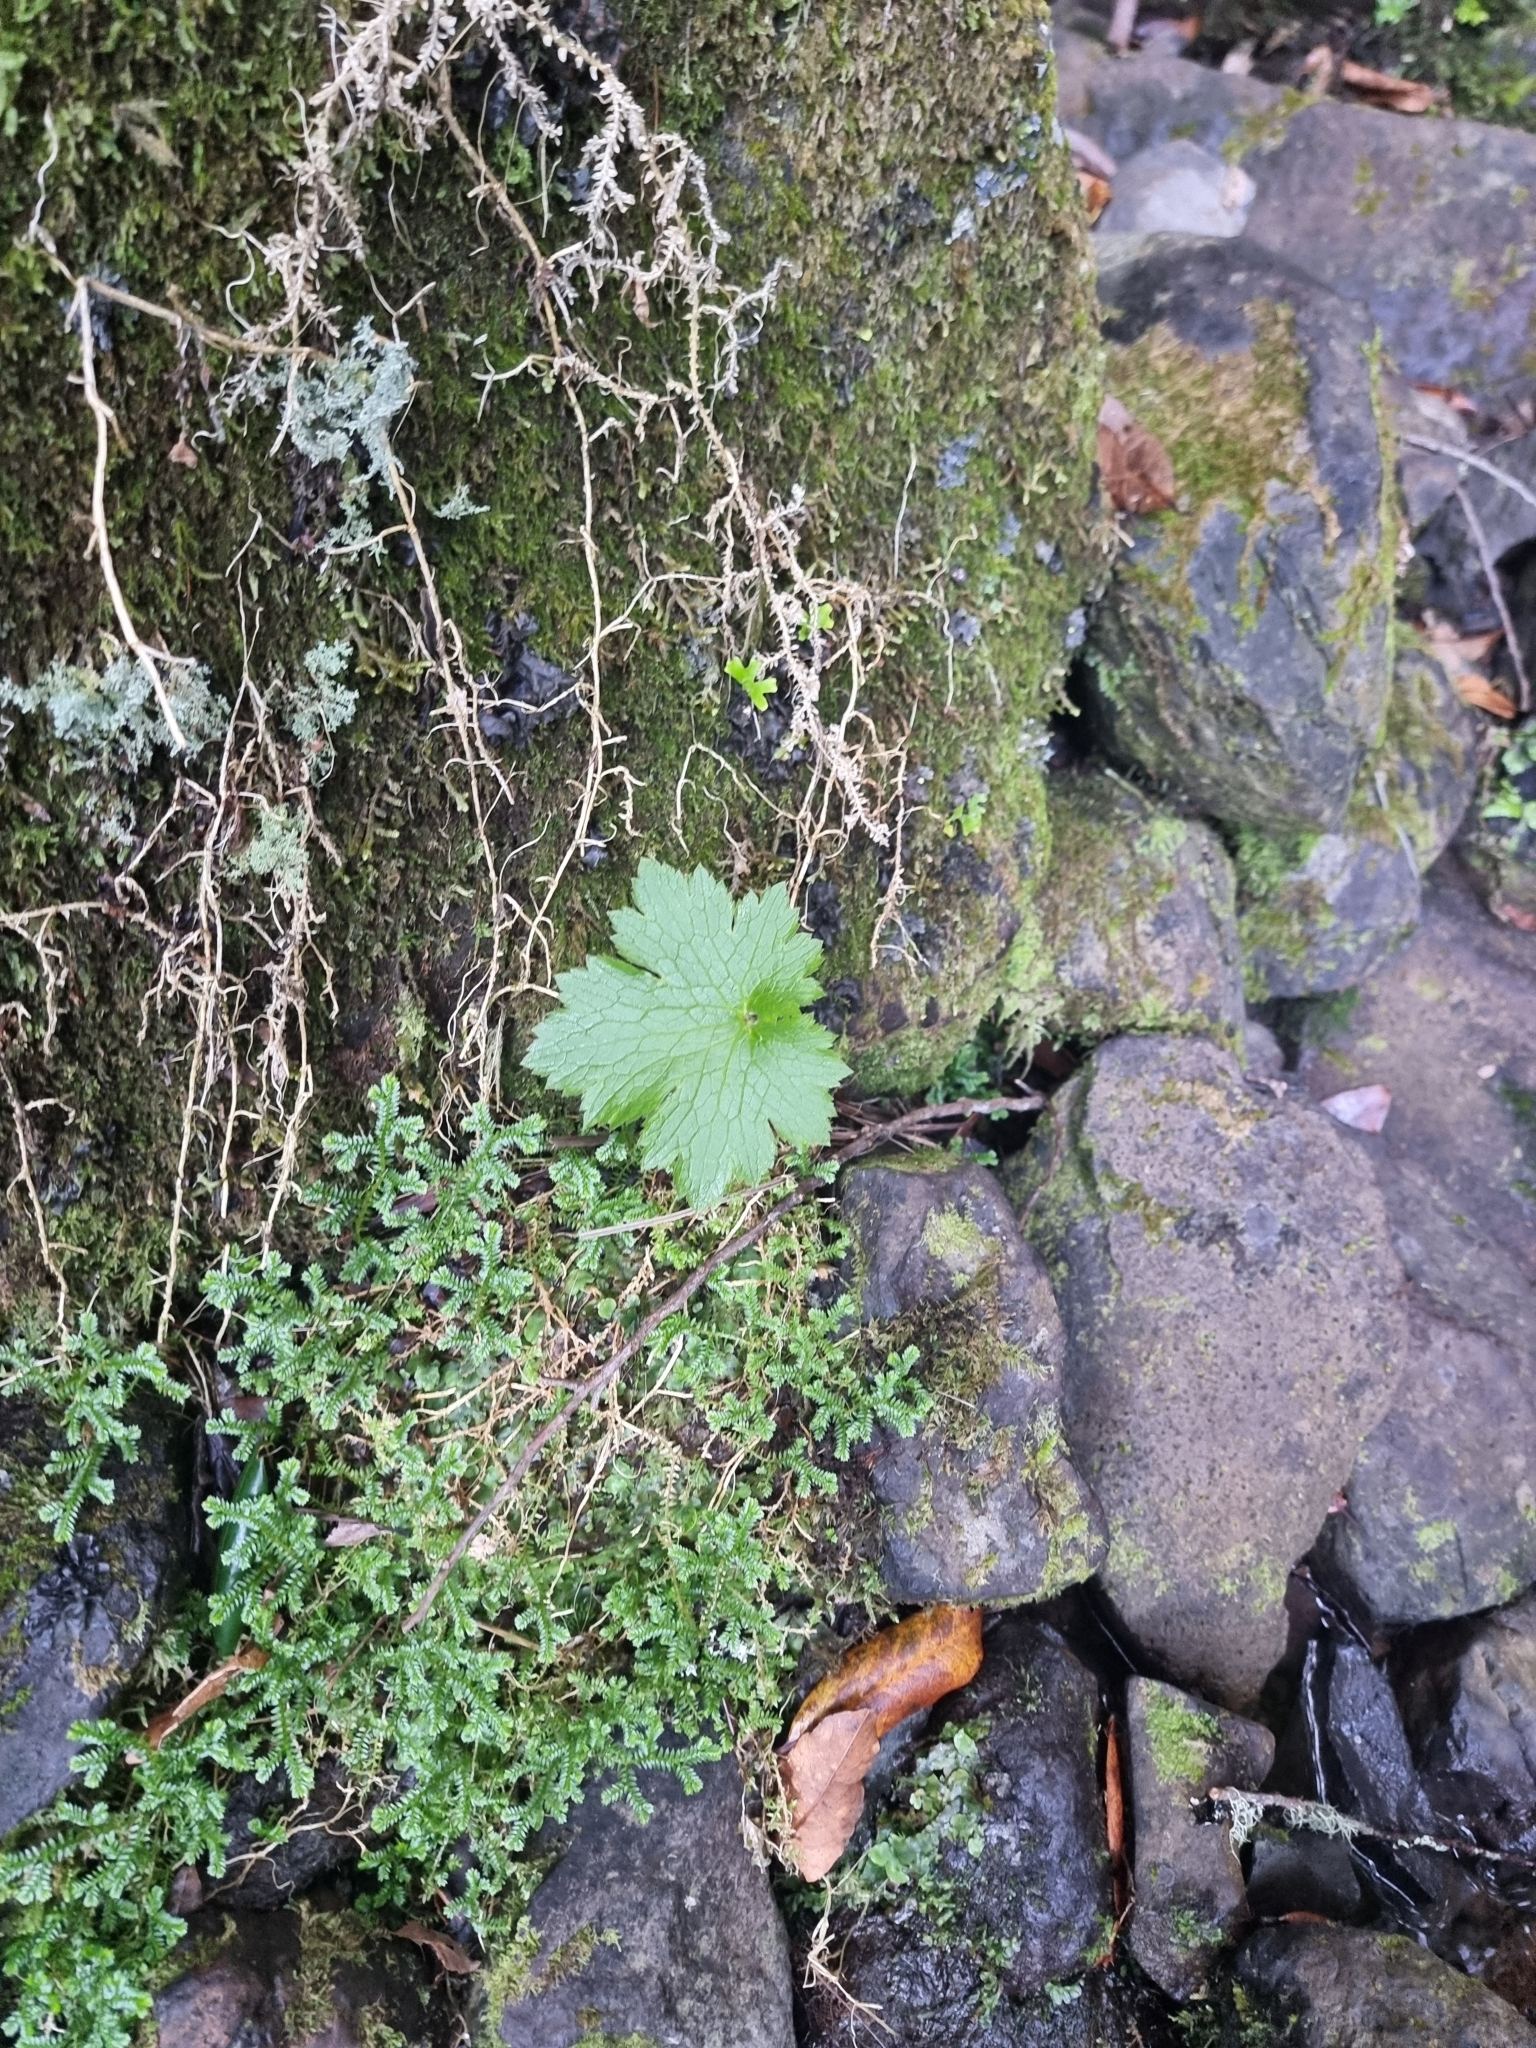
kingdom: Plantae
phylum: Tracheophyta
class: Magnoliopsida
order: Ranunculales
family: Ranunculaceae
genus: Ranunculus
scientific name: Ranunculus cortusifolius
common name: Azores buttercup
